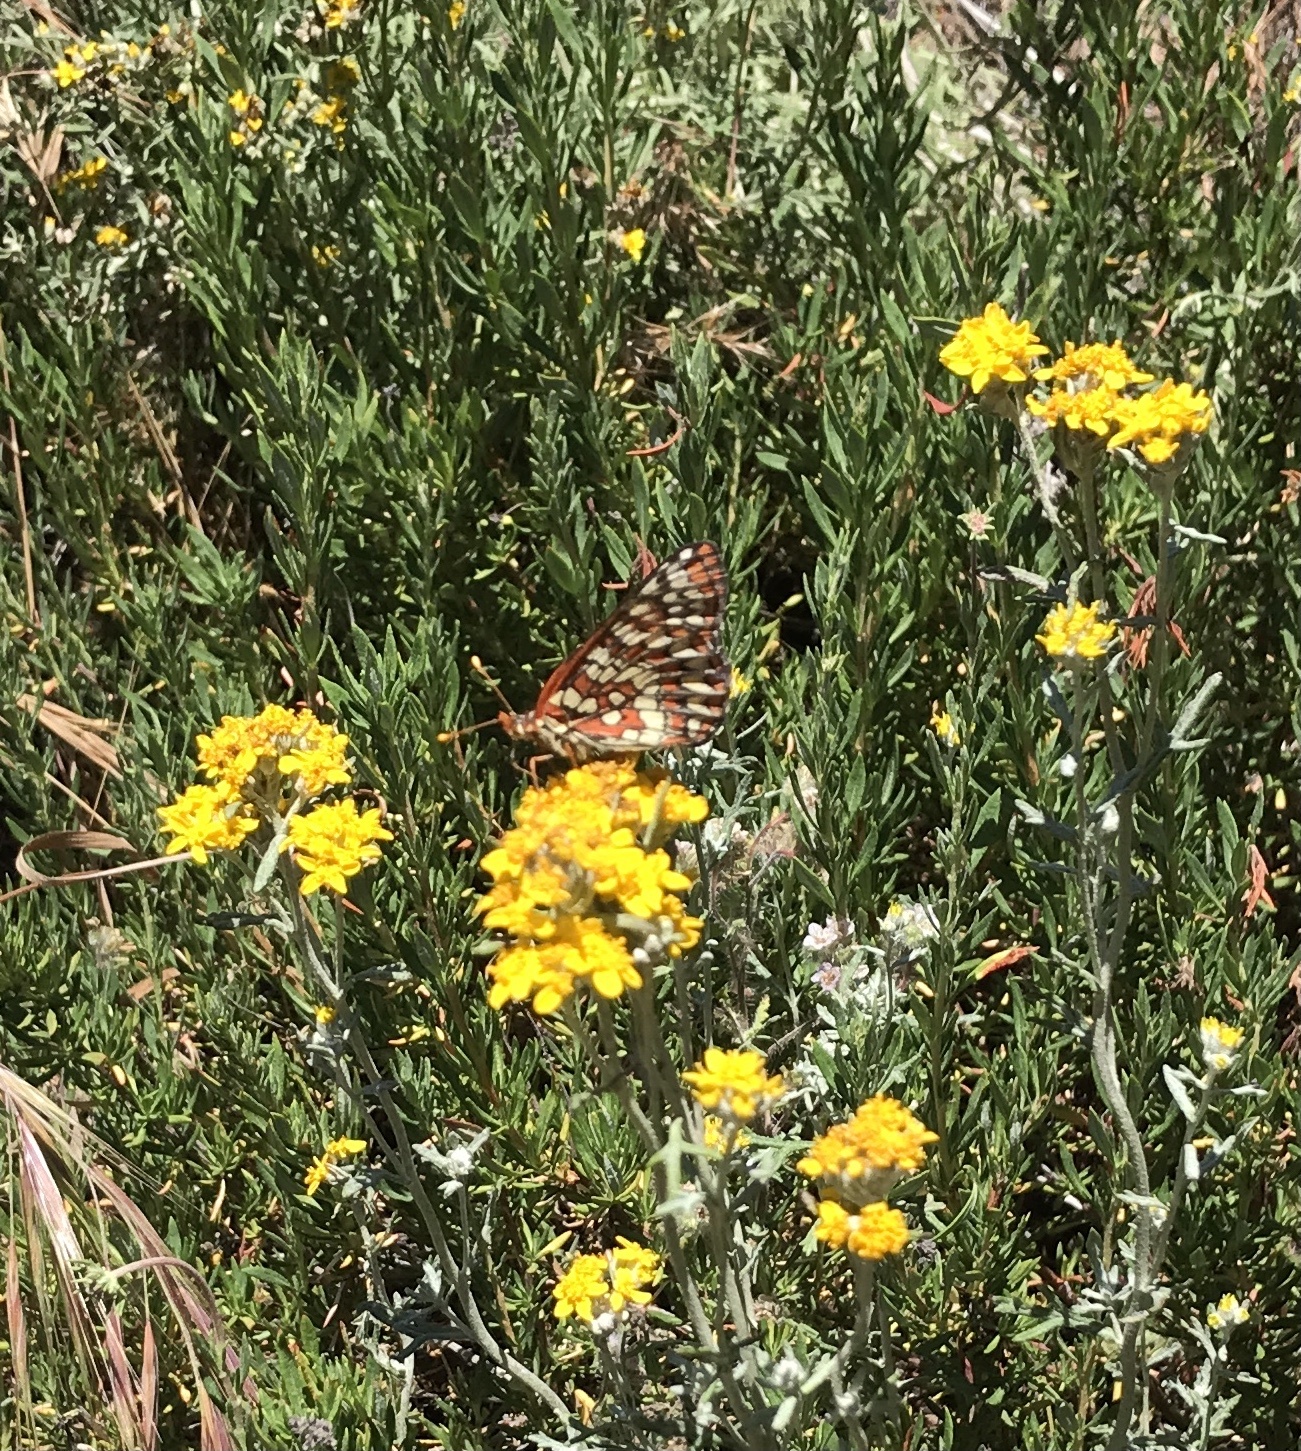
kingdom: Animalia
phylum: Arthropoda
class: Insecta
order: Lepidoptera
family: Nymphalidae
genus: Occidryas
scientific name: Occidryas chalcedona
